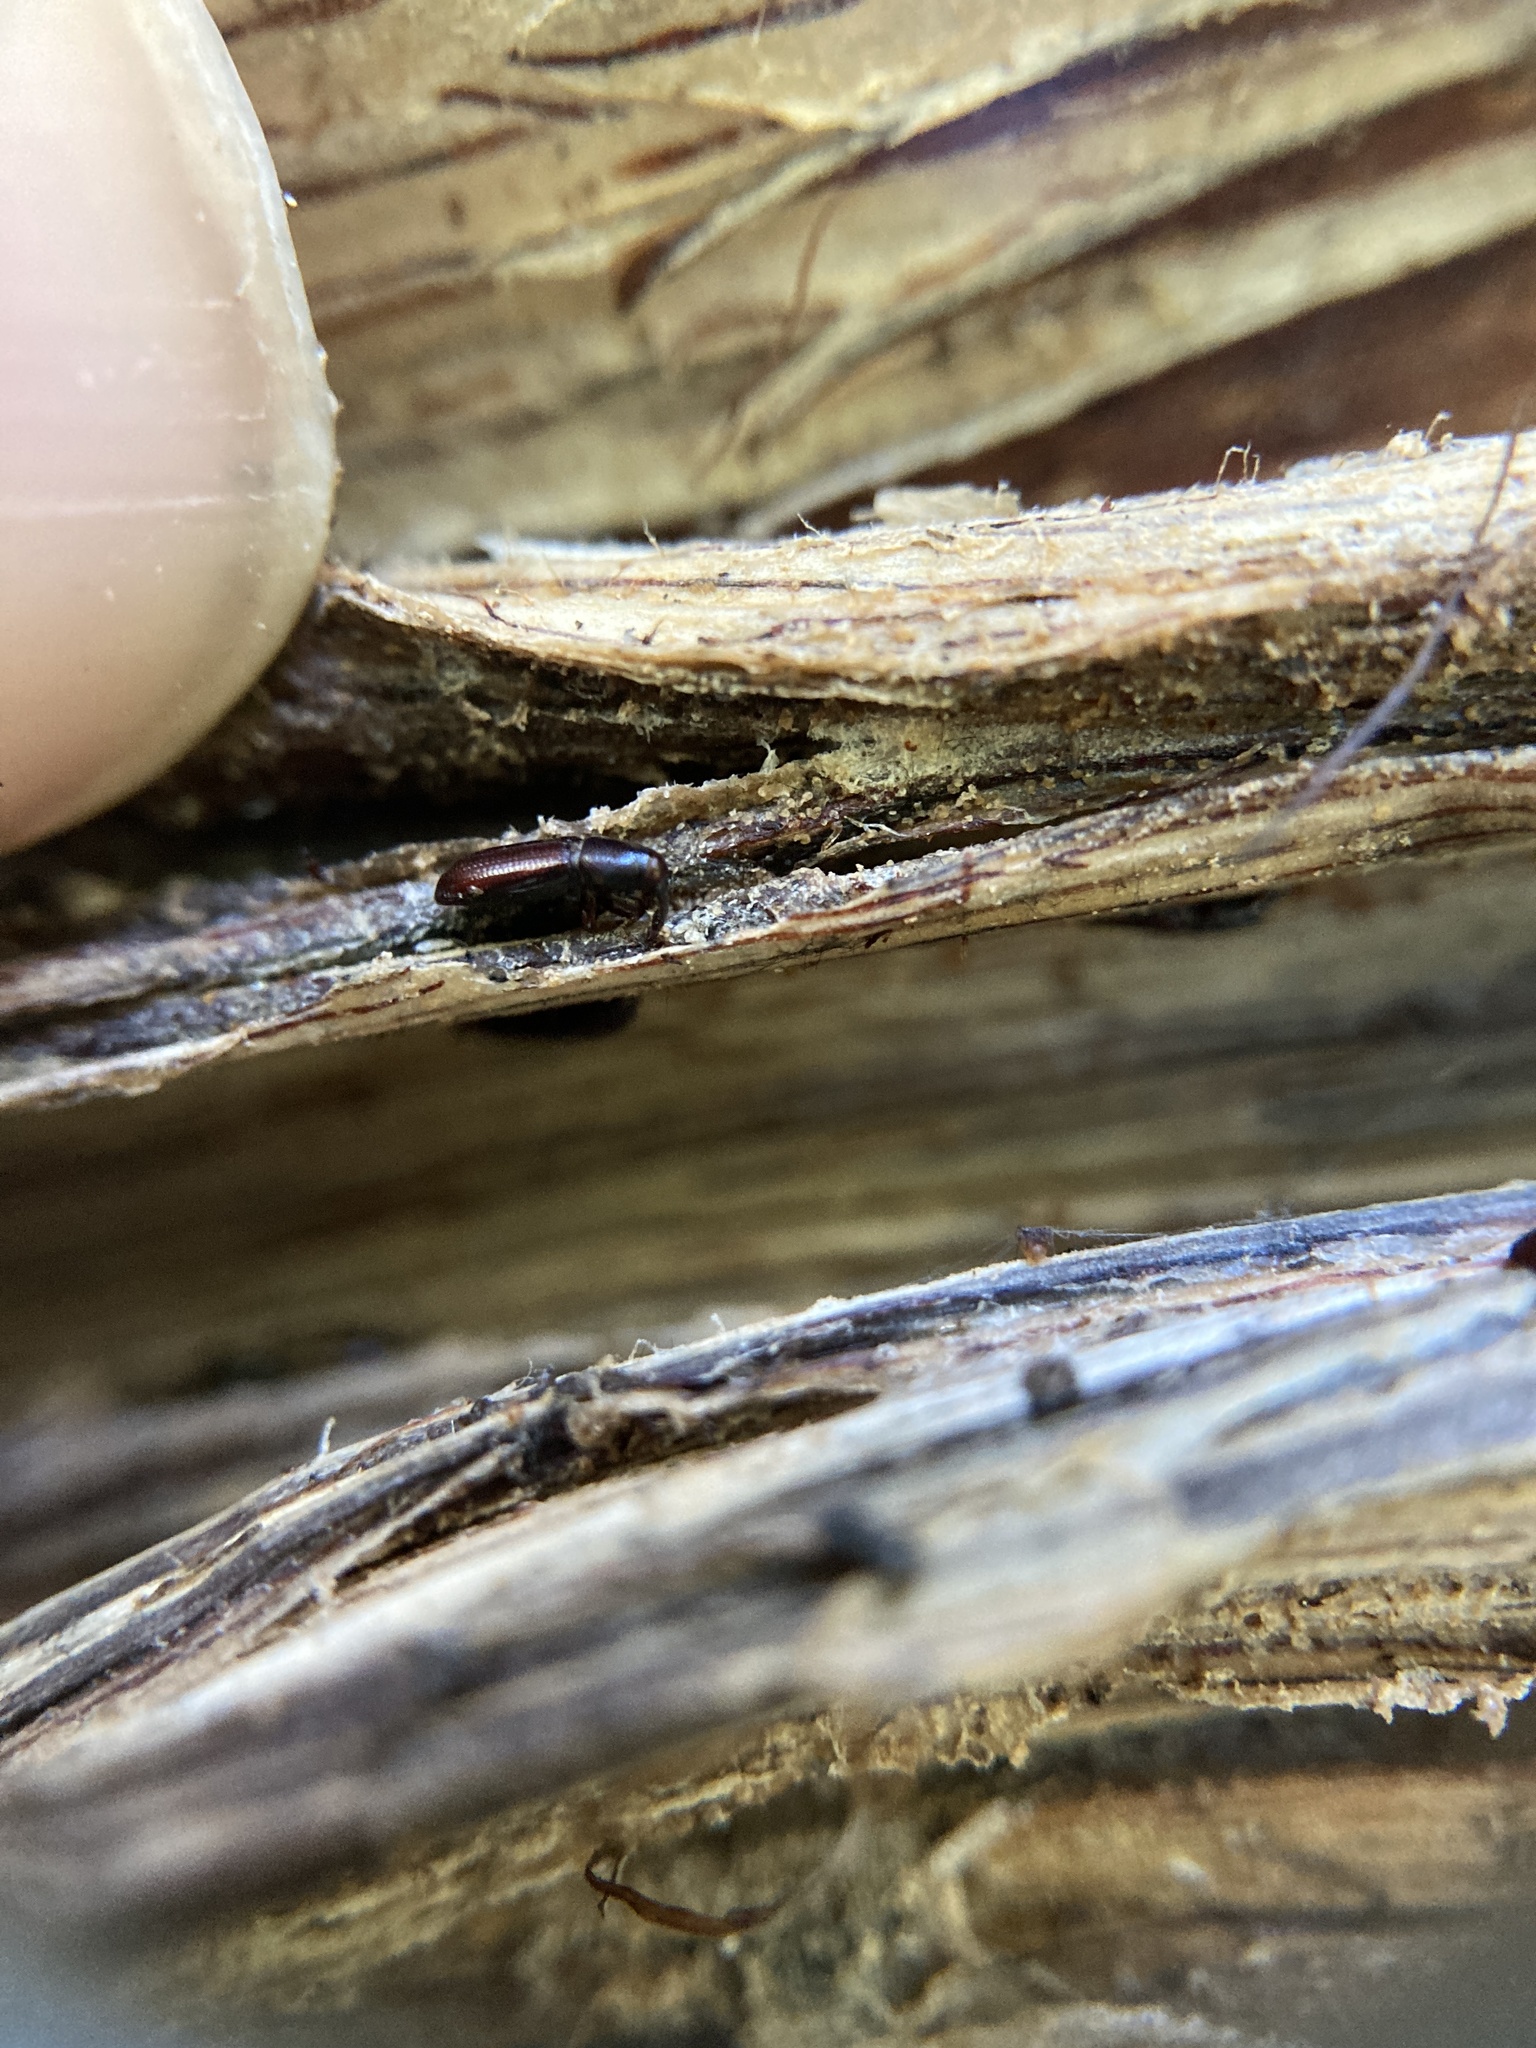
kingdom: Animalia
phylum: Arthropoda
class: Insecta
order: Coleoptera
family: Curculionidae
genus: Toura
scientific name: Toura longirostris
